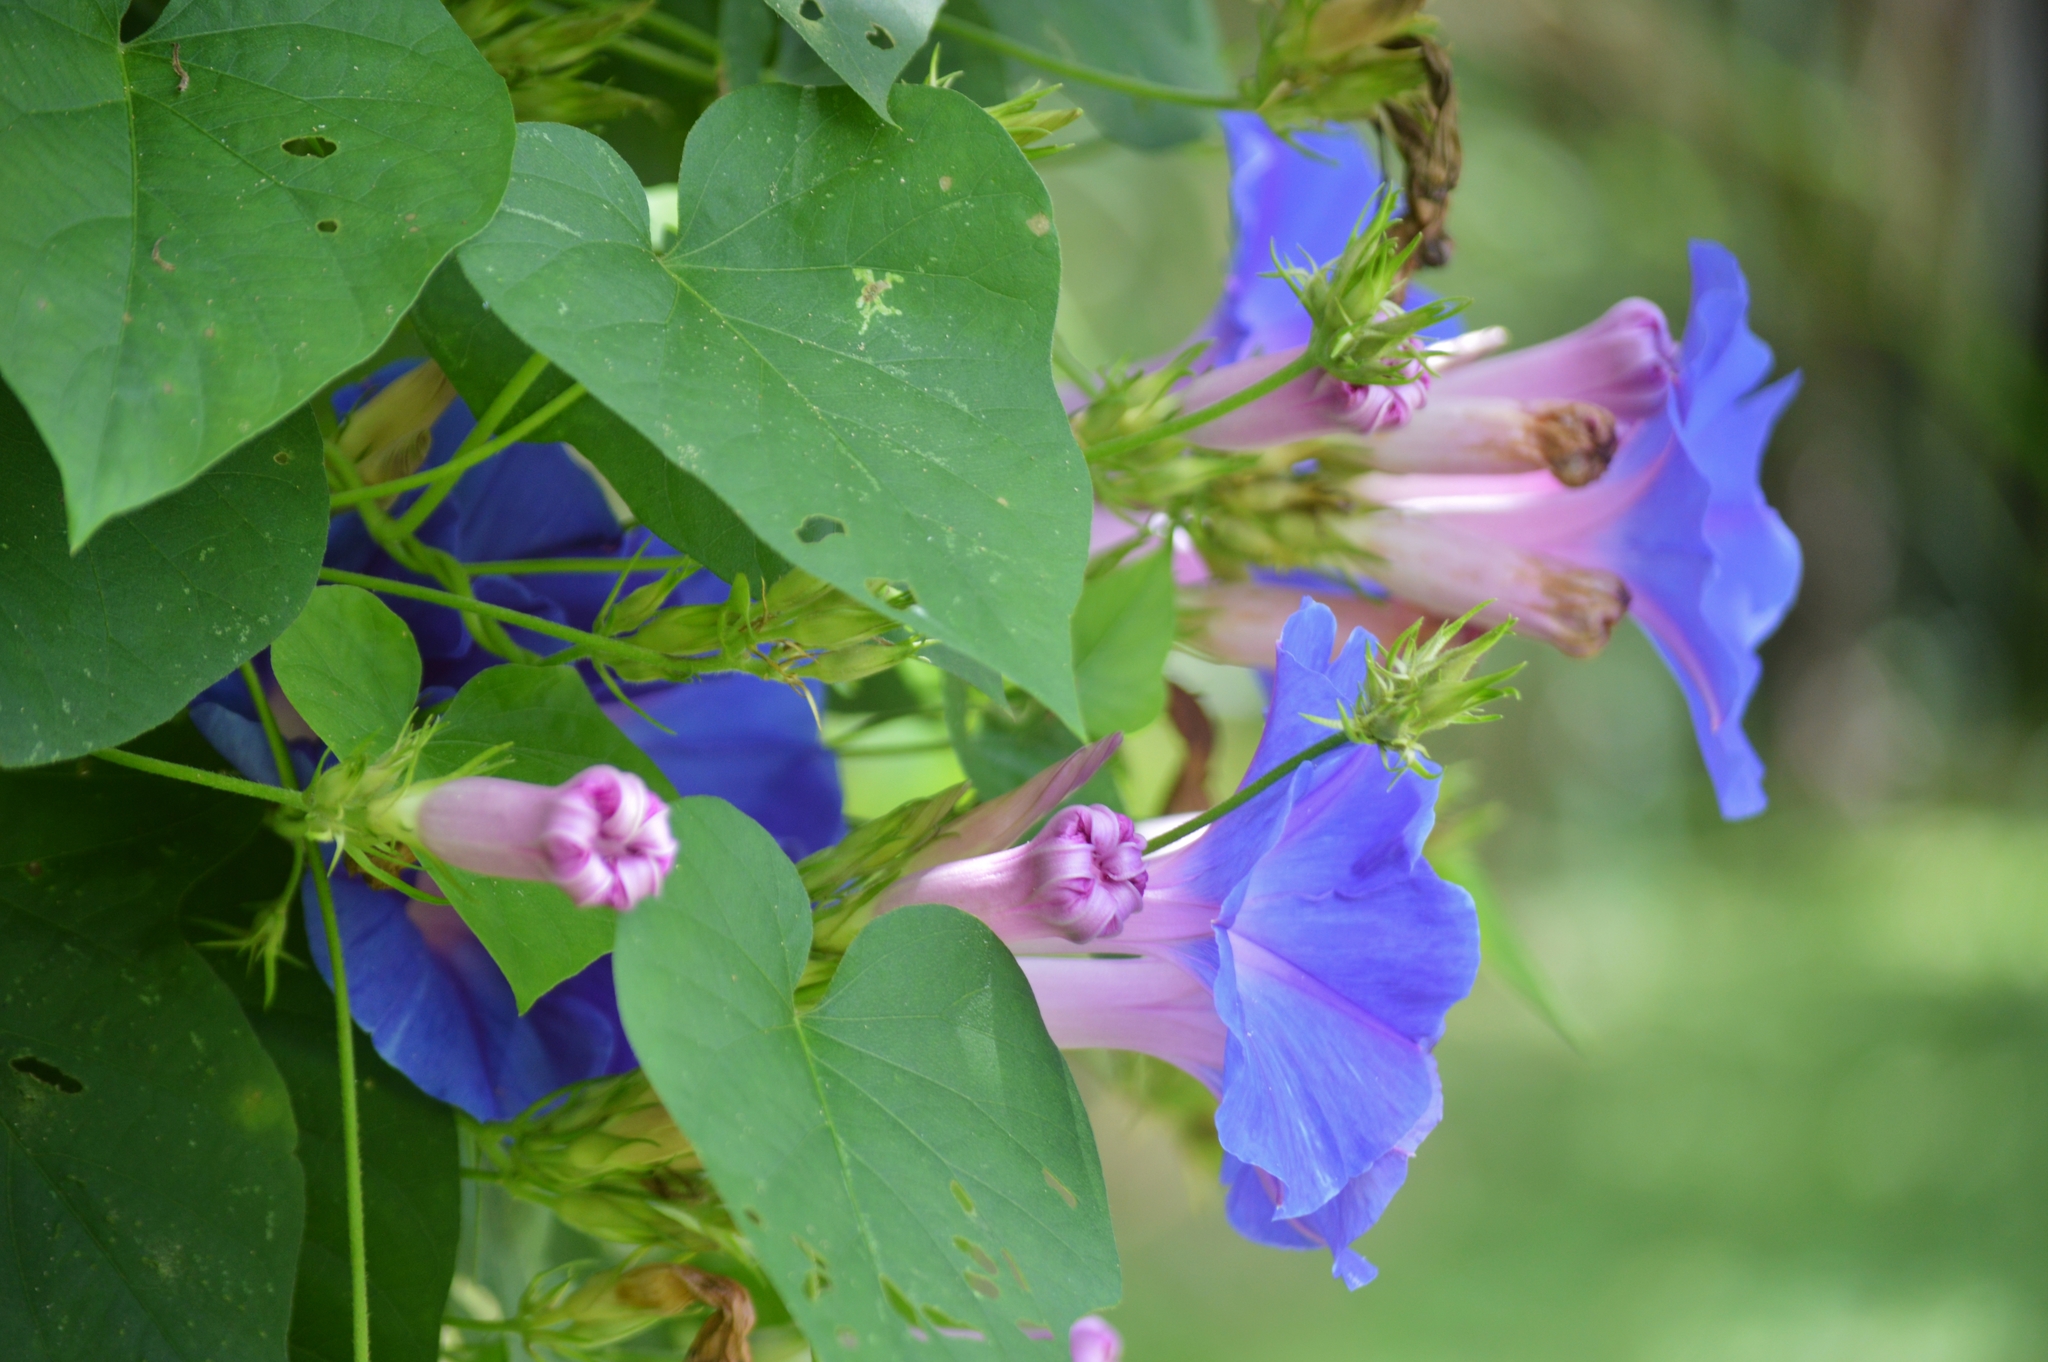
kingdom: Plantae
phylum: Tracheophyta
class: Magnoliopsida
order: Solanales
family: Convolvulaceae
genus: Ipomoea
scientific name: Ipomoea indica
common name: Blue dawnflower
